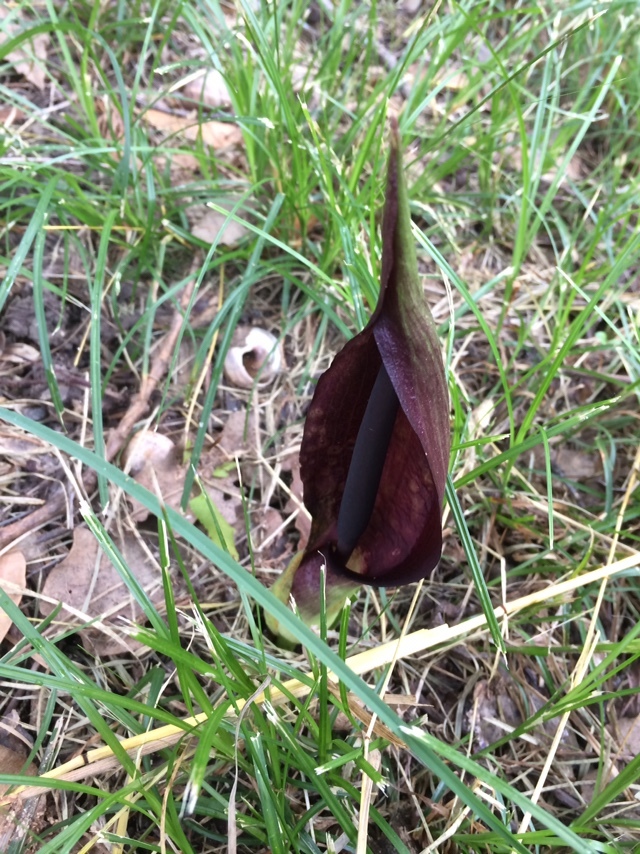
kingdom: Plantae
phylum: Tracheophyta
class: Liliopsida
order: Alismatales
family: Araceae
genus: Arum
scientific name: Arum orientale
